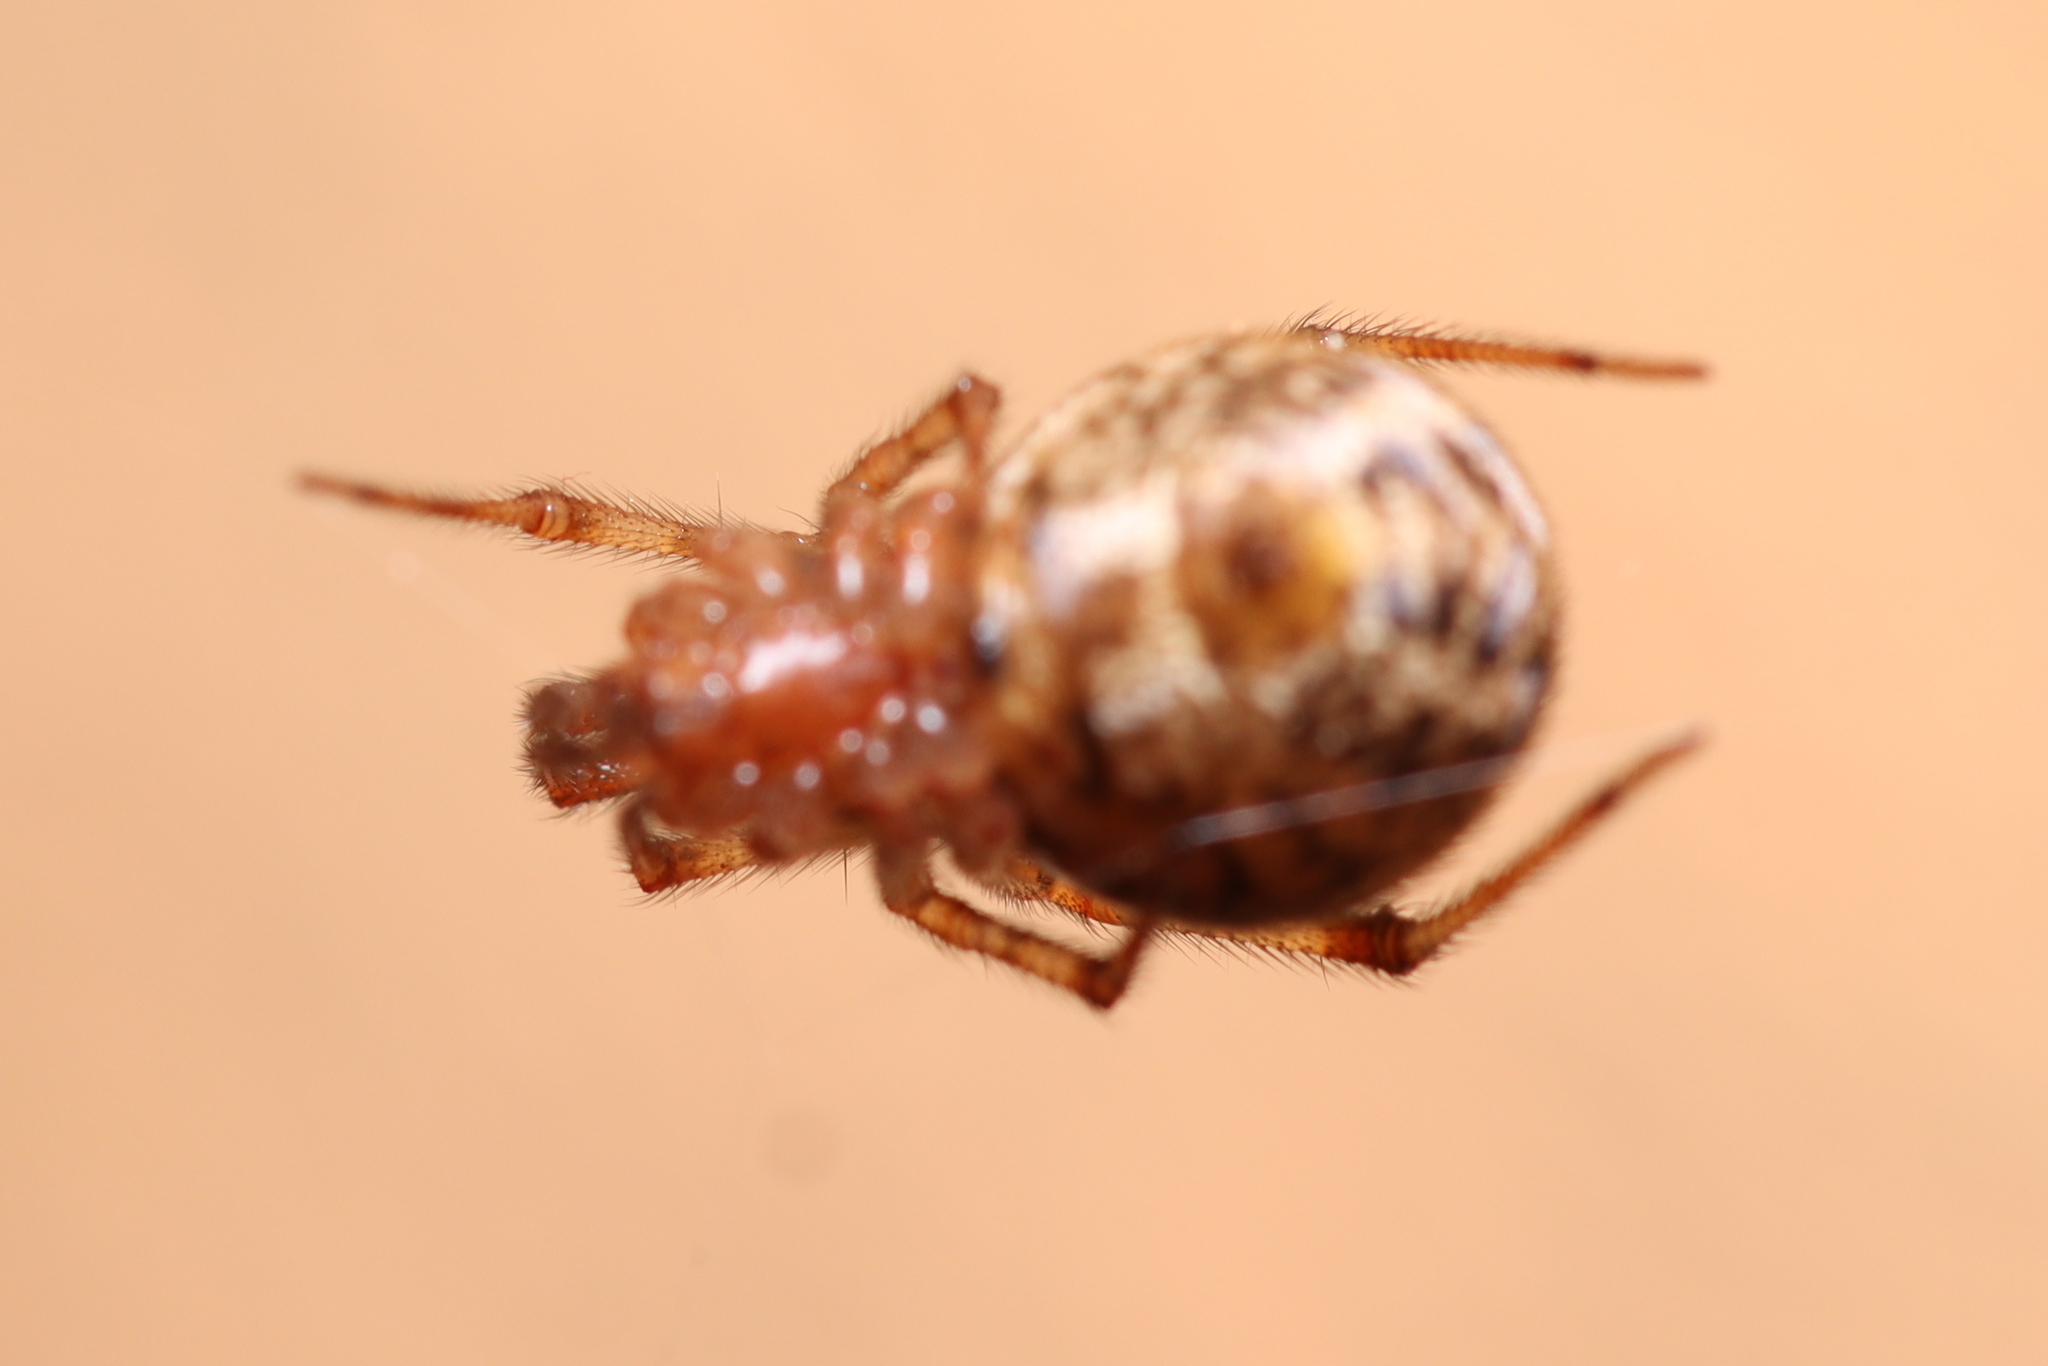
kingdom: Animalia
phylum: Arthropoda
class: Arachnida
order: Araneae
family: Theridiidae
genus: Parasteatoda
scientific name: Parasteatoda tepidariorum
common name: Common house spider
